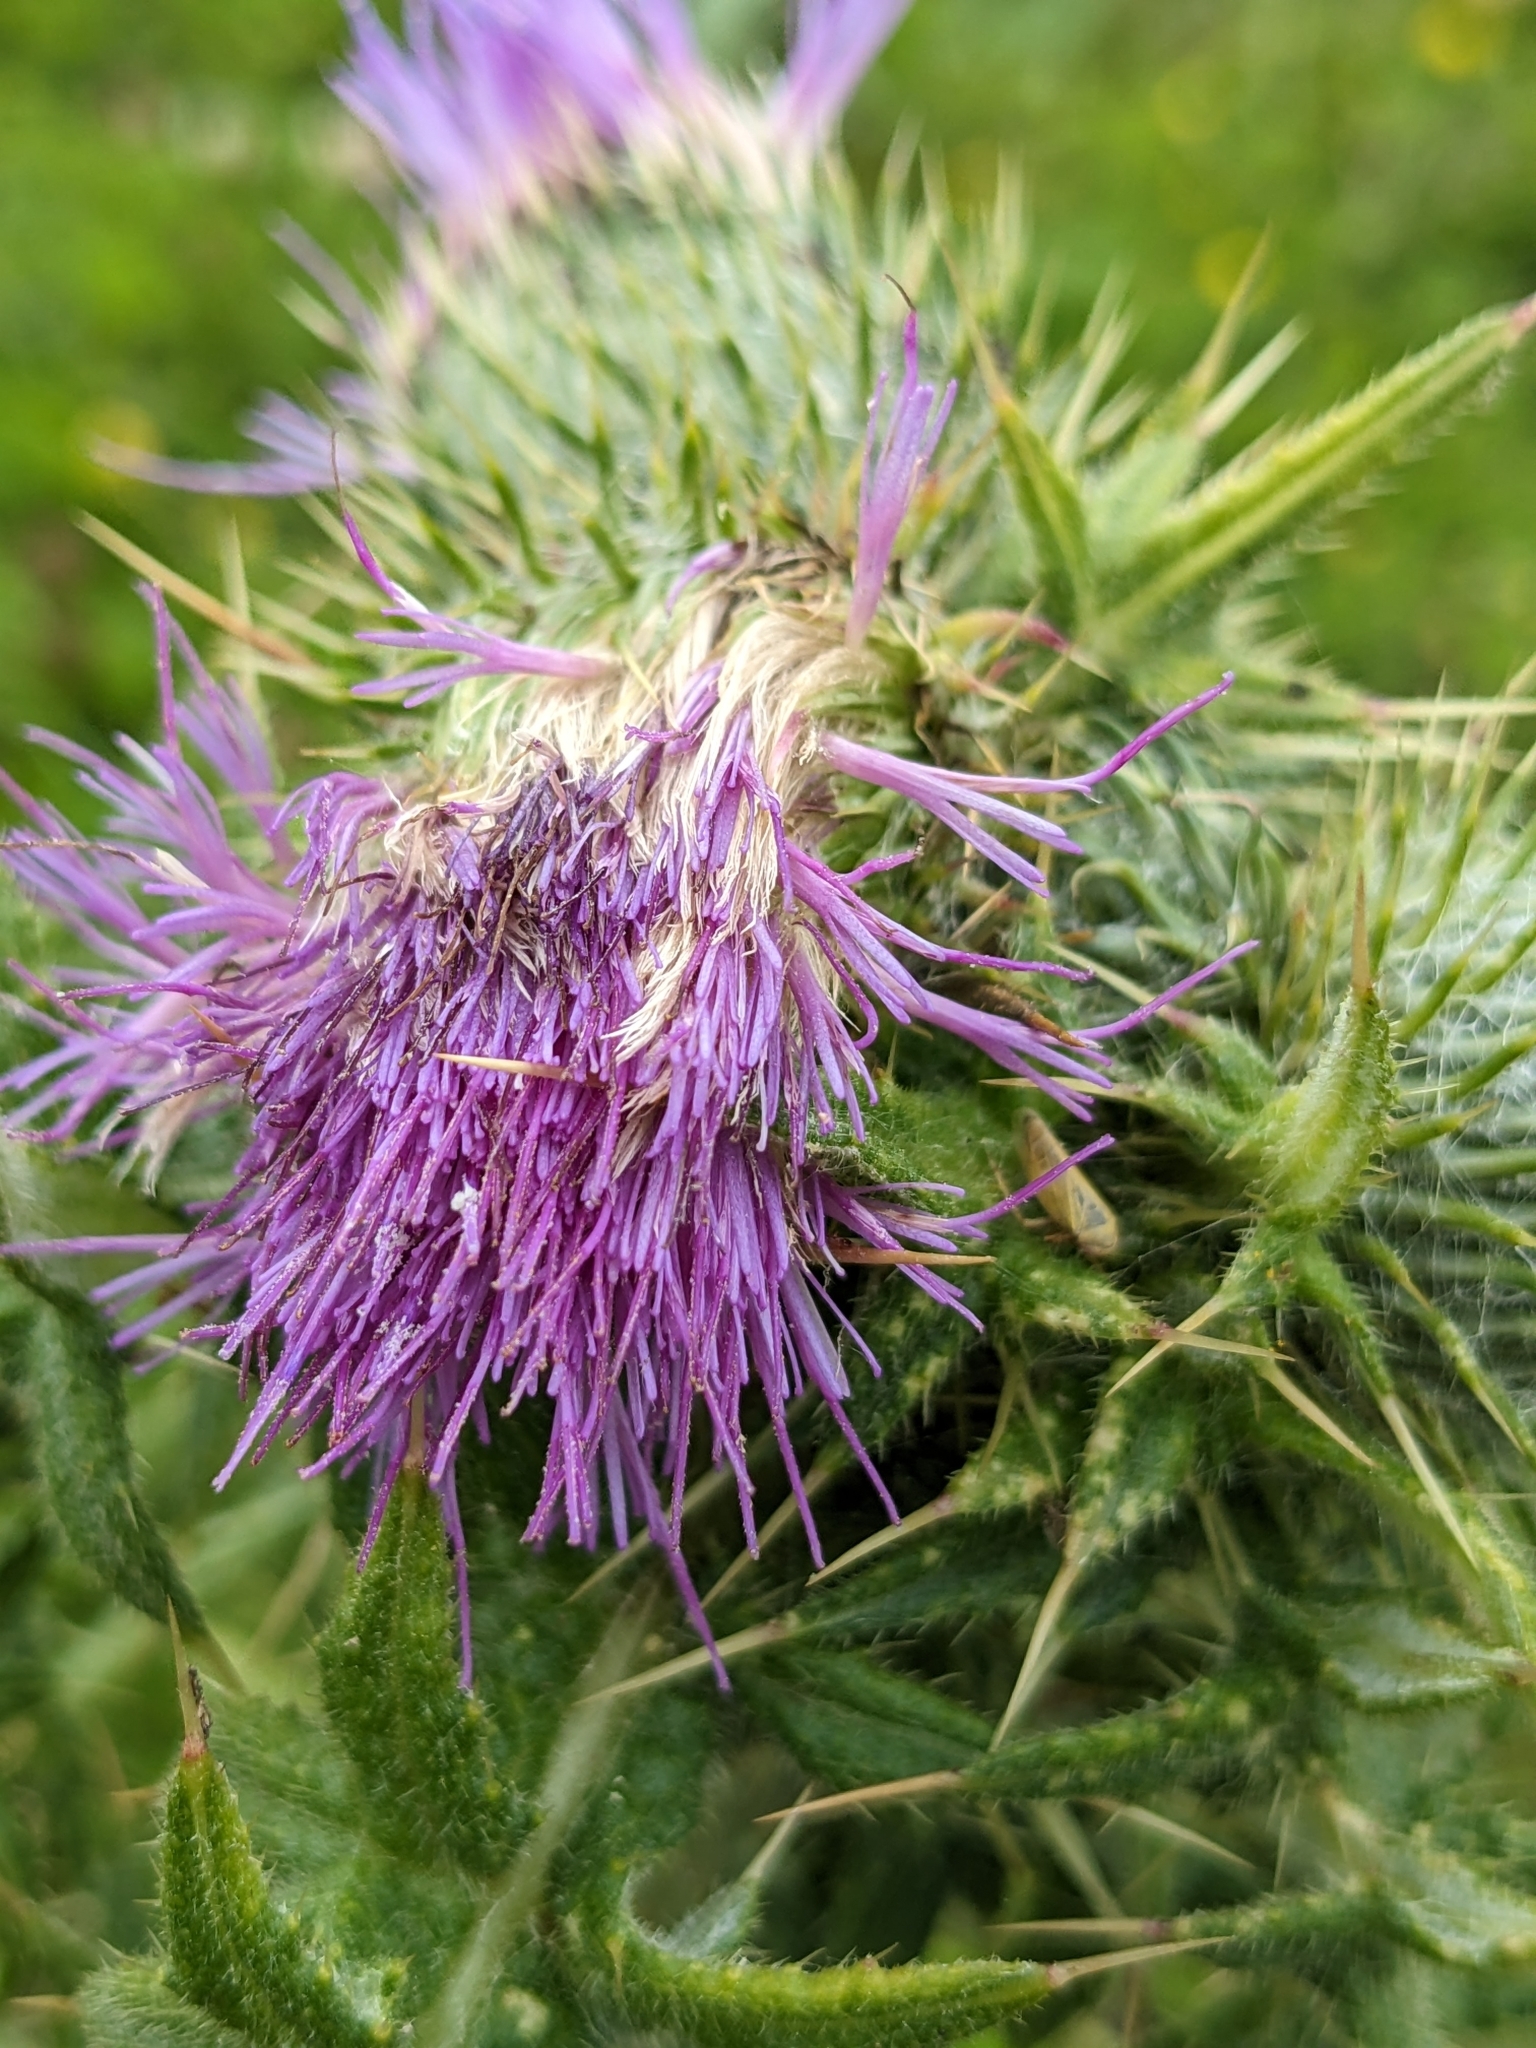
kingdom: Plantae
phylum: Tracheophyta
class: Magnoliopsida
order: Asterales
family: Asteraceae
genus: Cirsium
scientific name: Cirsium vulgare
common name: Bull thistle
